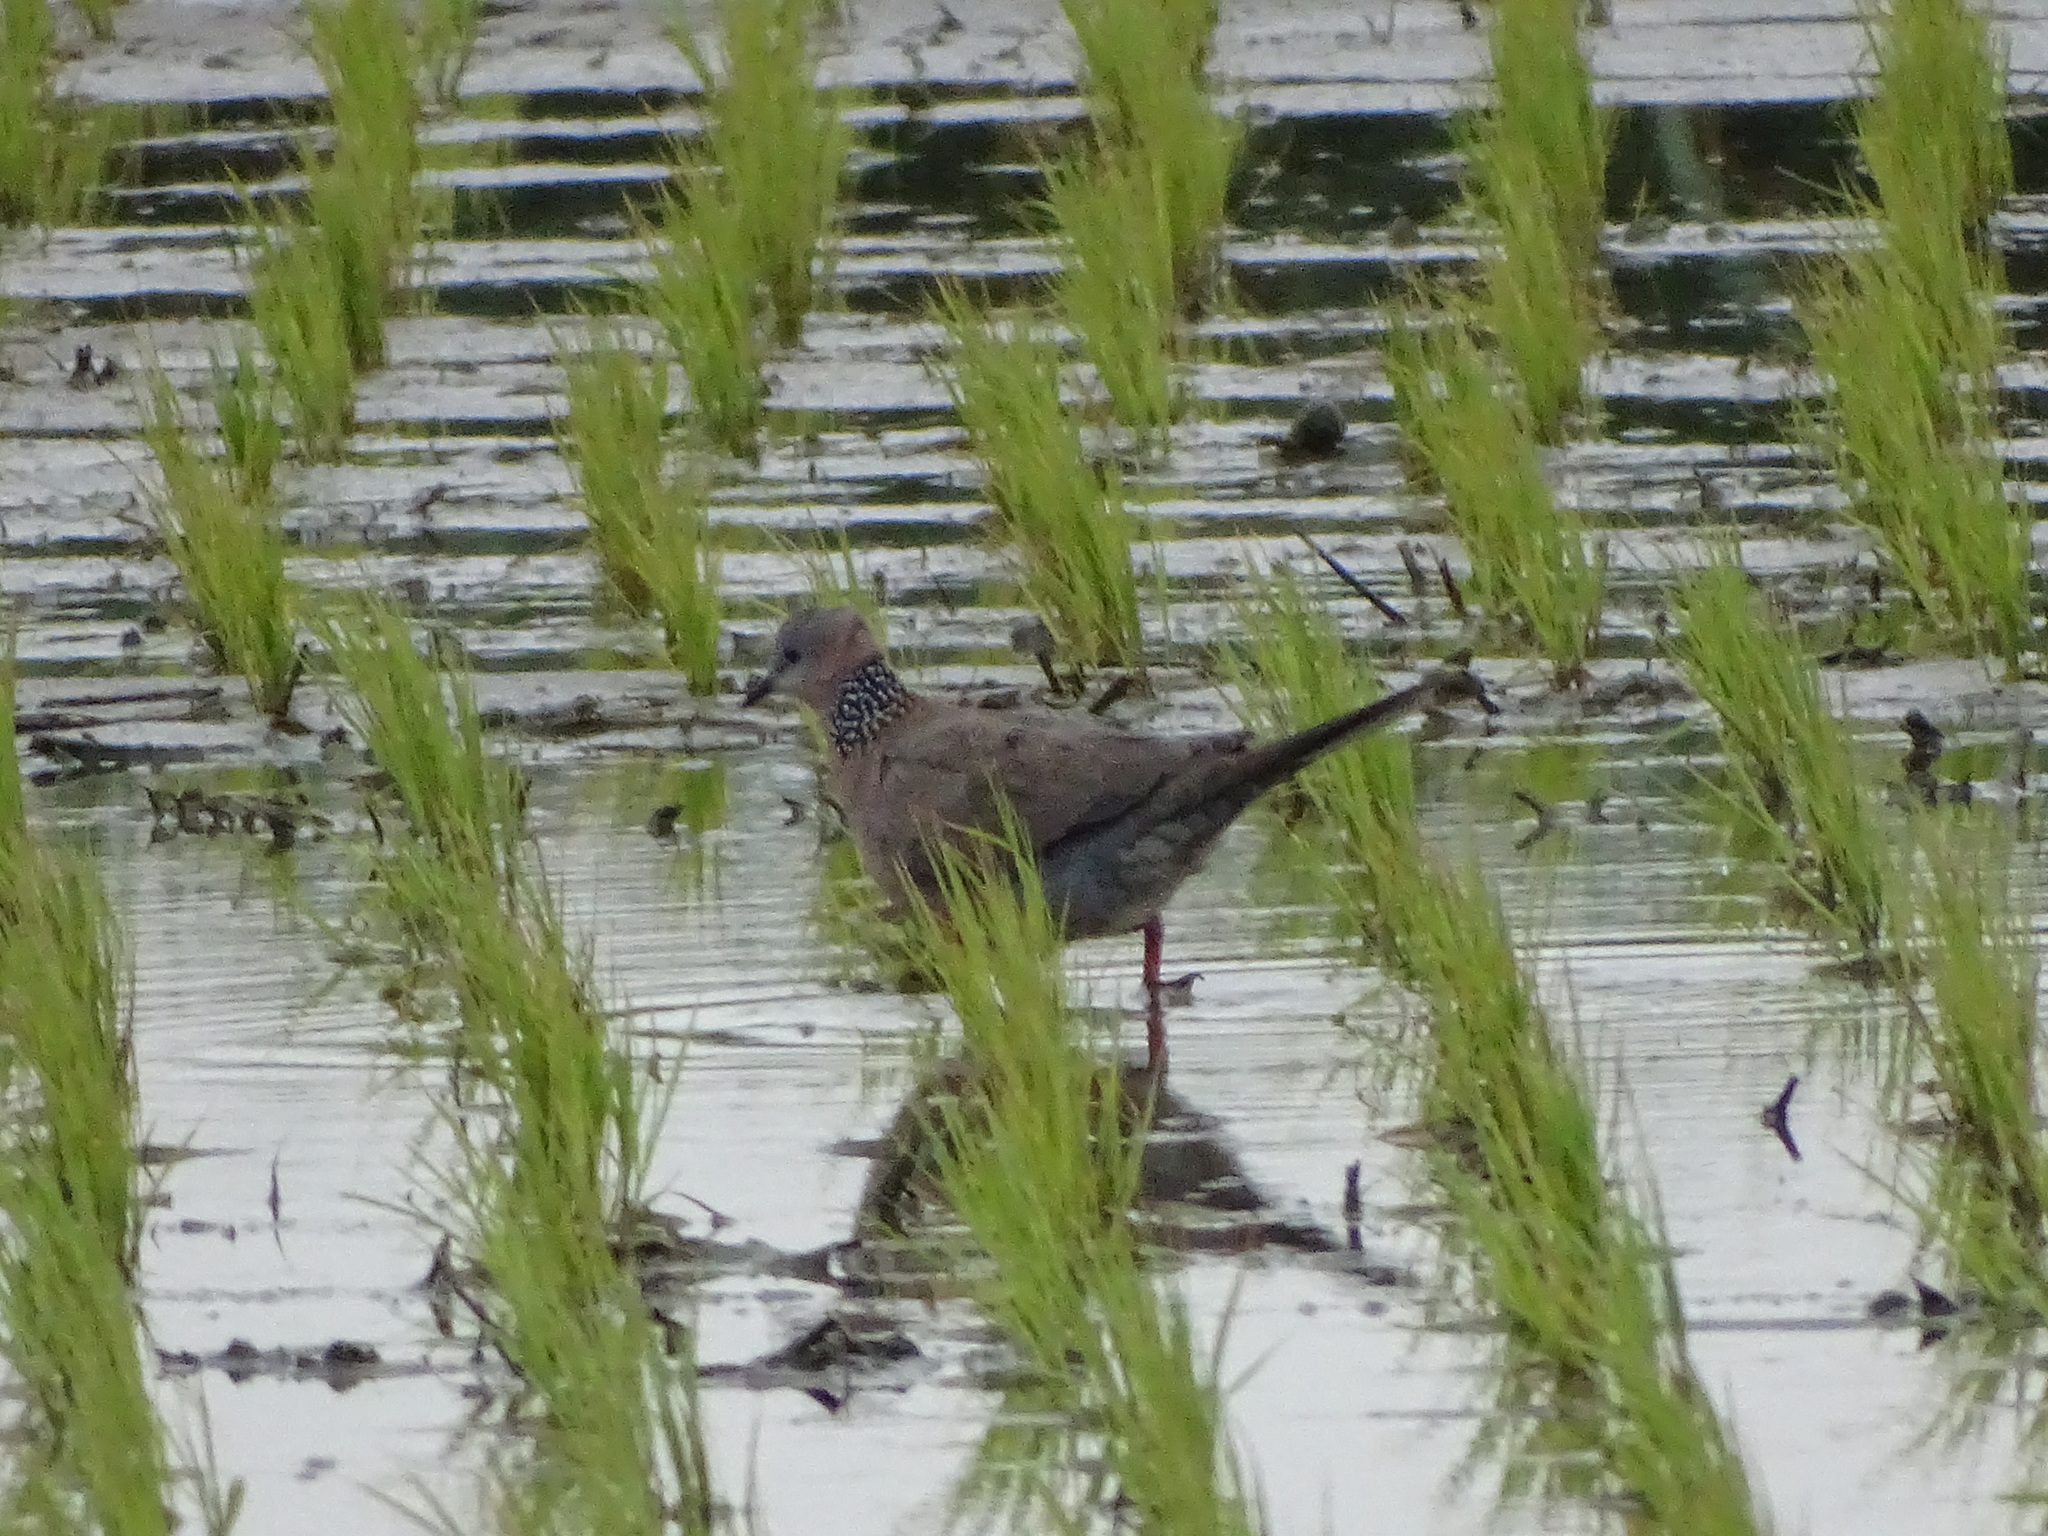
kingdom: Animalia
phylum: Chordata
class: Aves
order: Columbiformes
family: Columbidae
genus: Spilopelia
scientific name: Spilopelia chinensis
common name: Spotted dove
